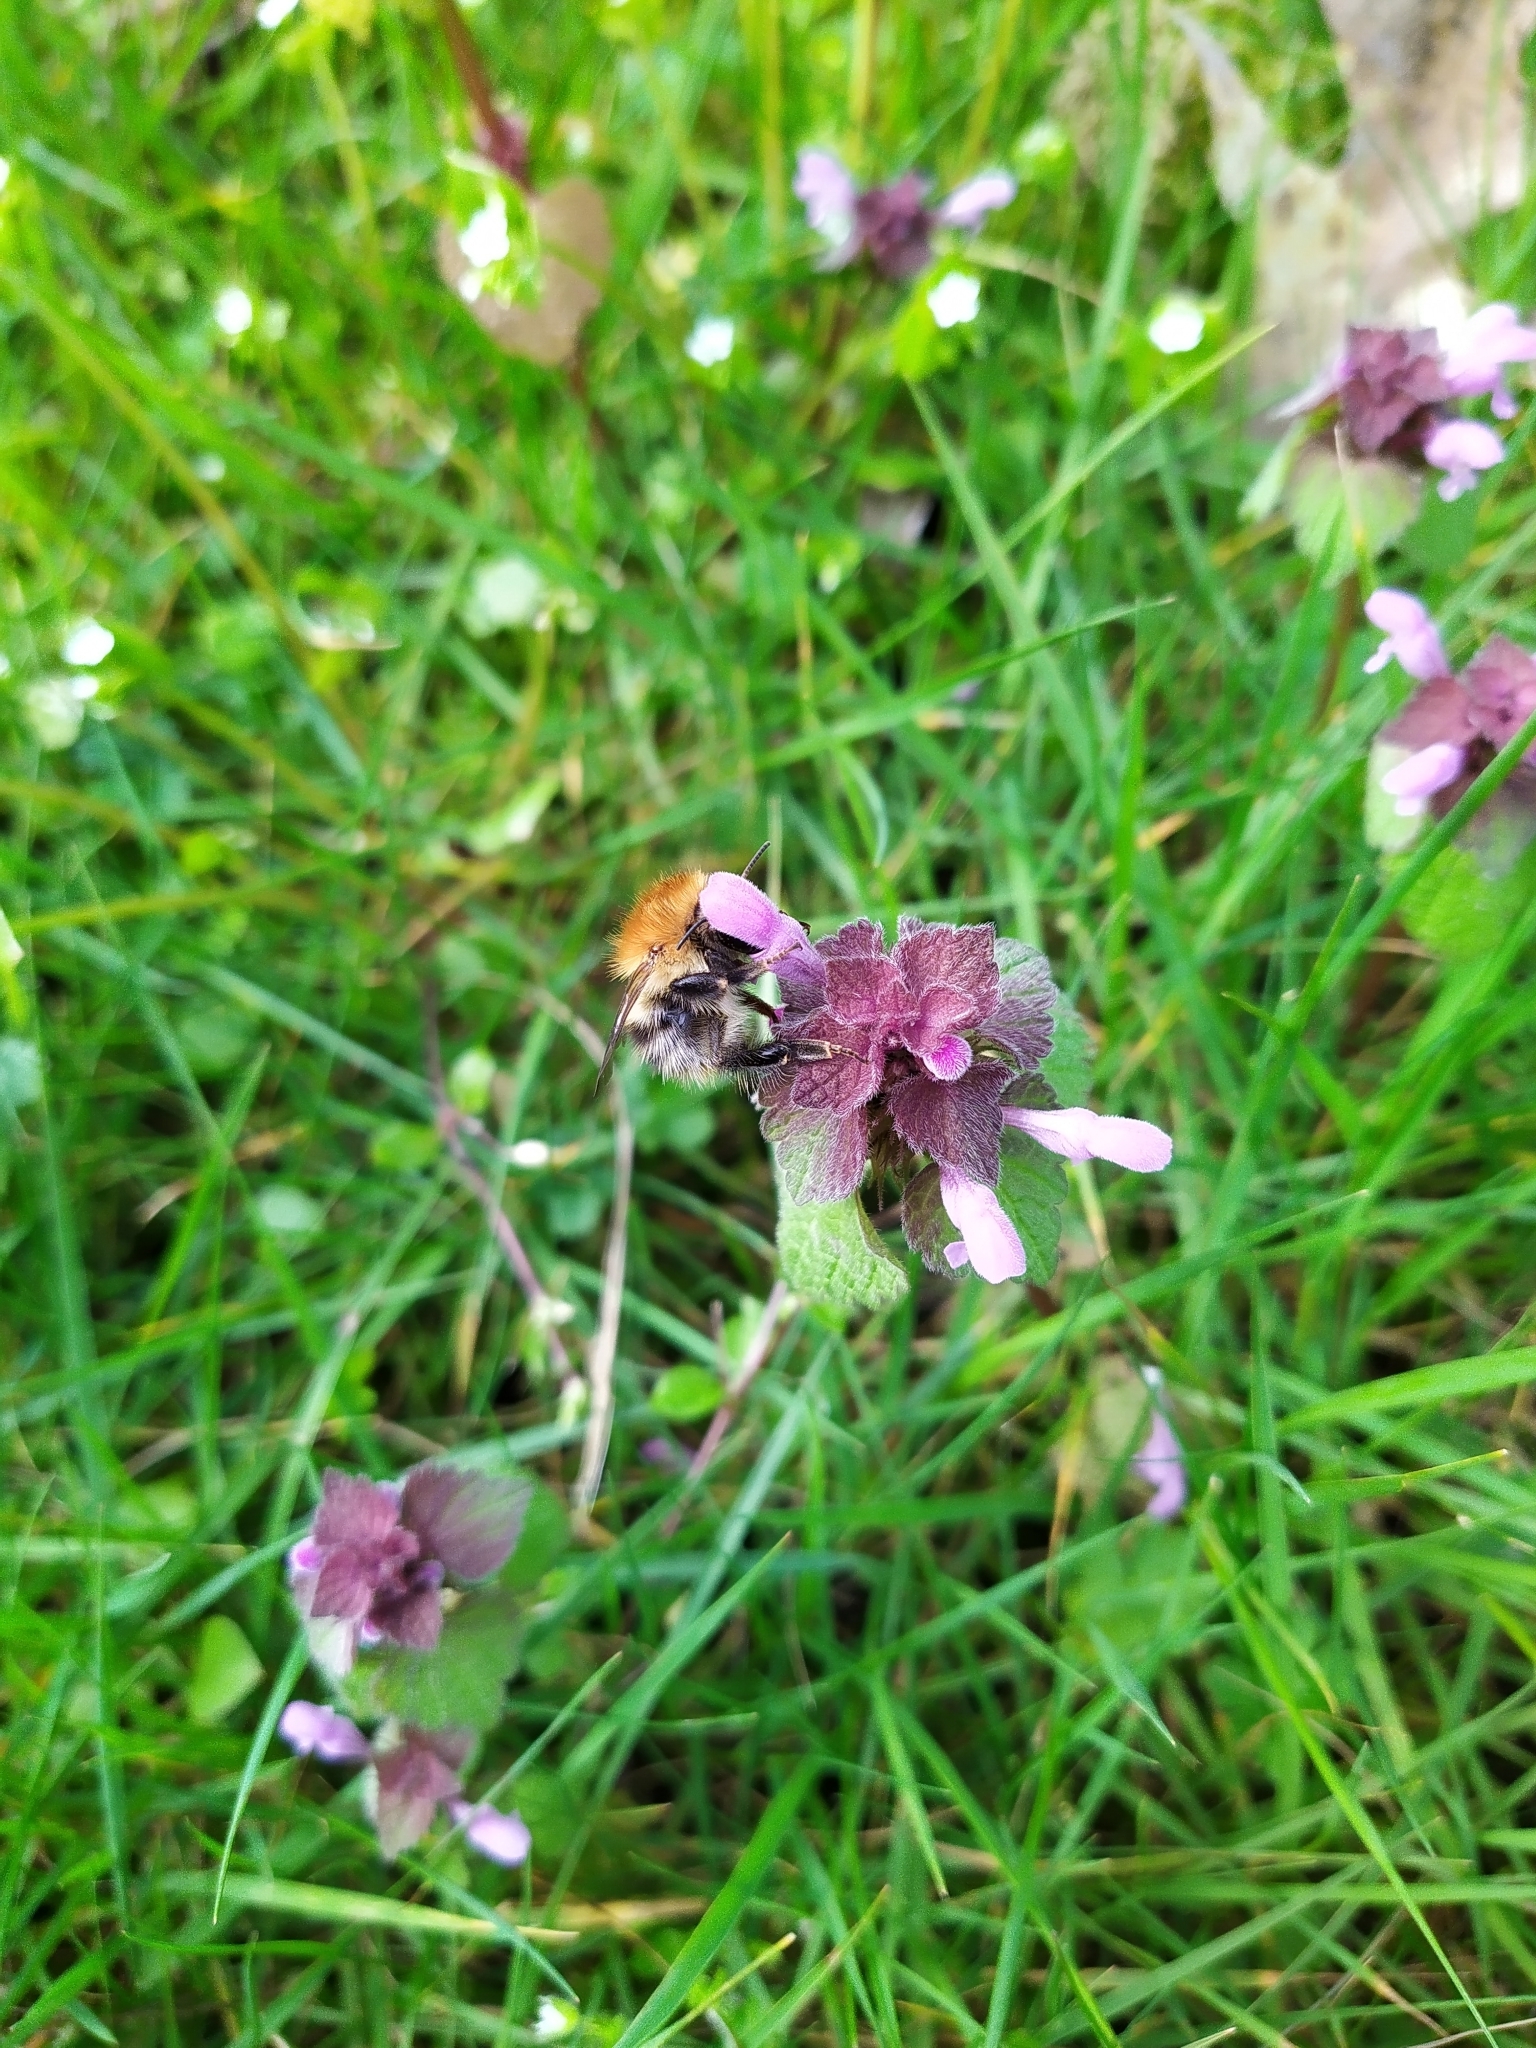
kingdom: Animalia
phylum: Arthropoda
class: Insecta
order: Hymenoptera
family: Apidae
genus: Bombus
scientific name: Bombus pascuorum
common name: Common carder bee
